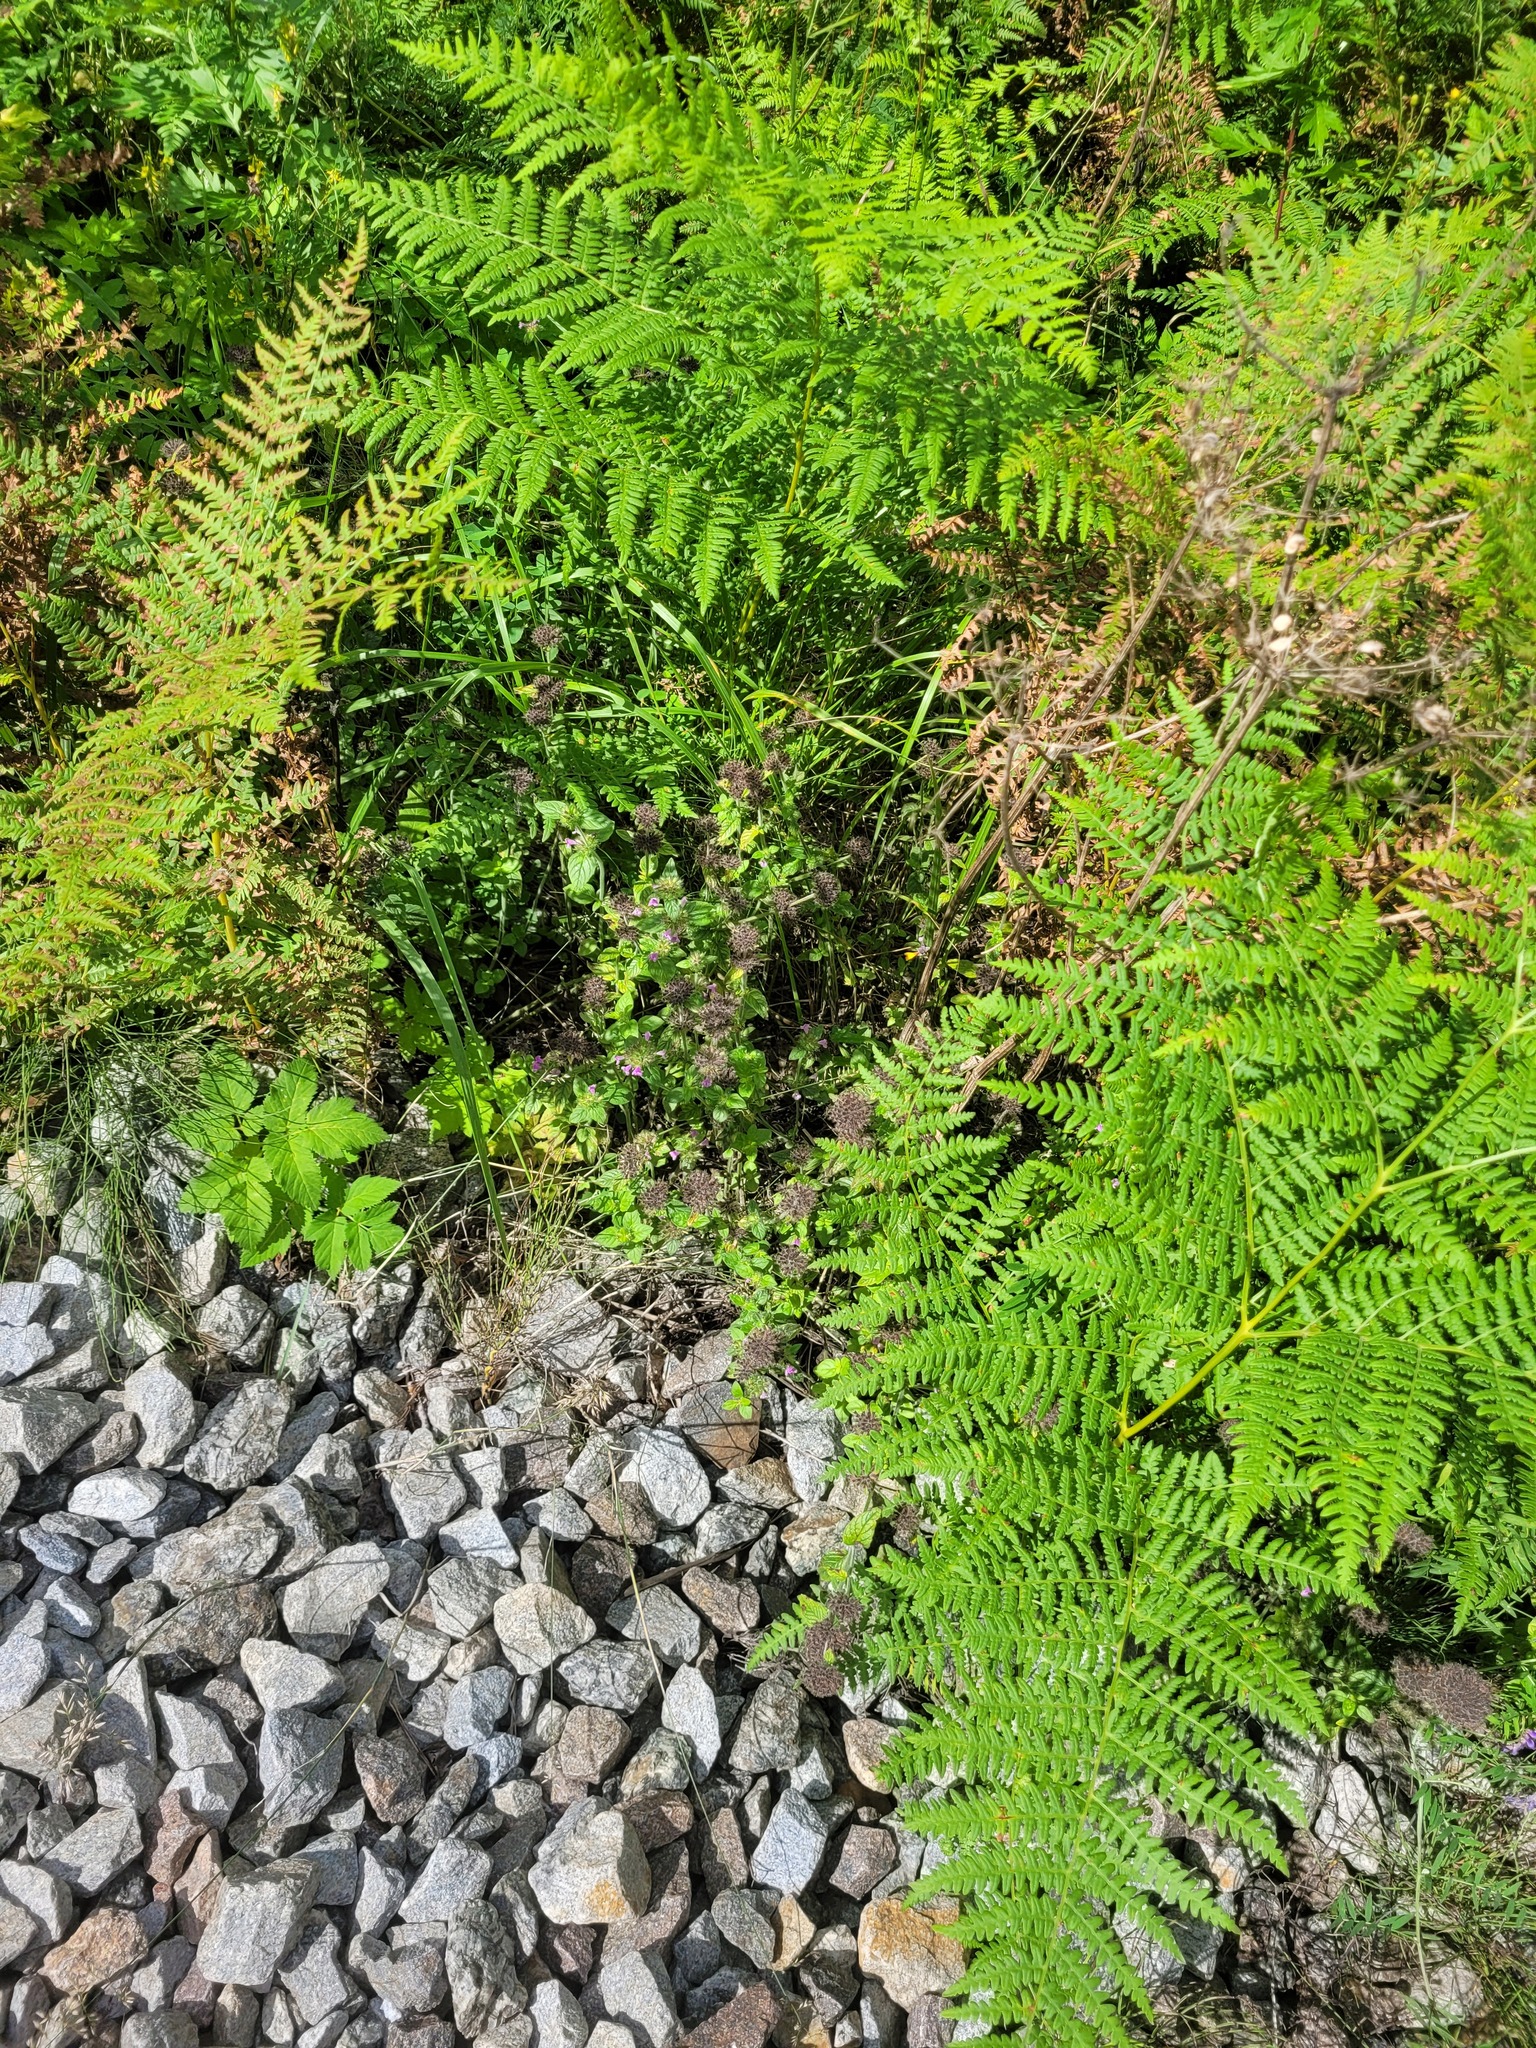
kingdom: Plantae
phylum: Tracheophyta
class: Magnoliopsida
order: Lamiales
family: Lamiaceae
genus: Clinopodium
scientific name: Clinopodium vulgare
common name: Wild basil
